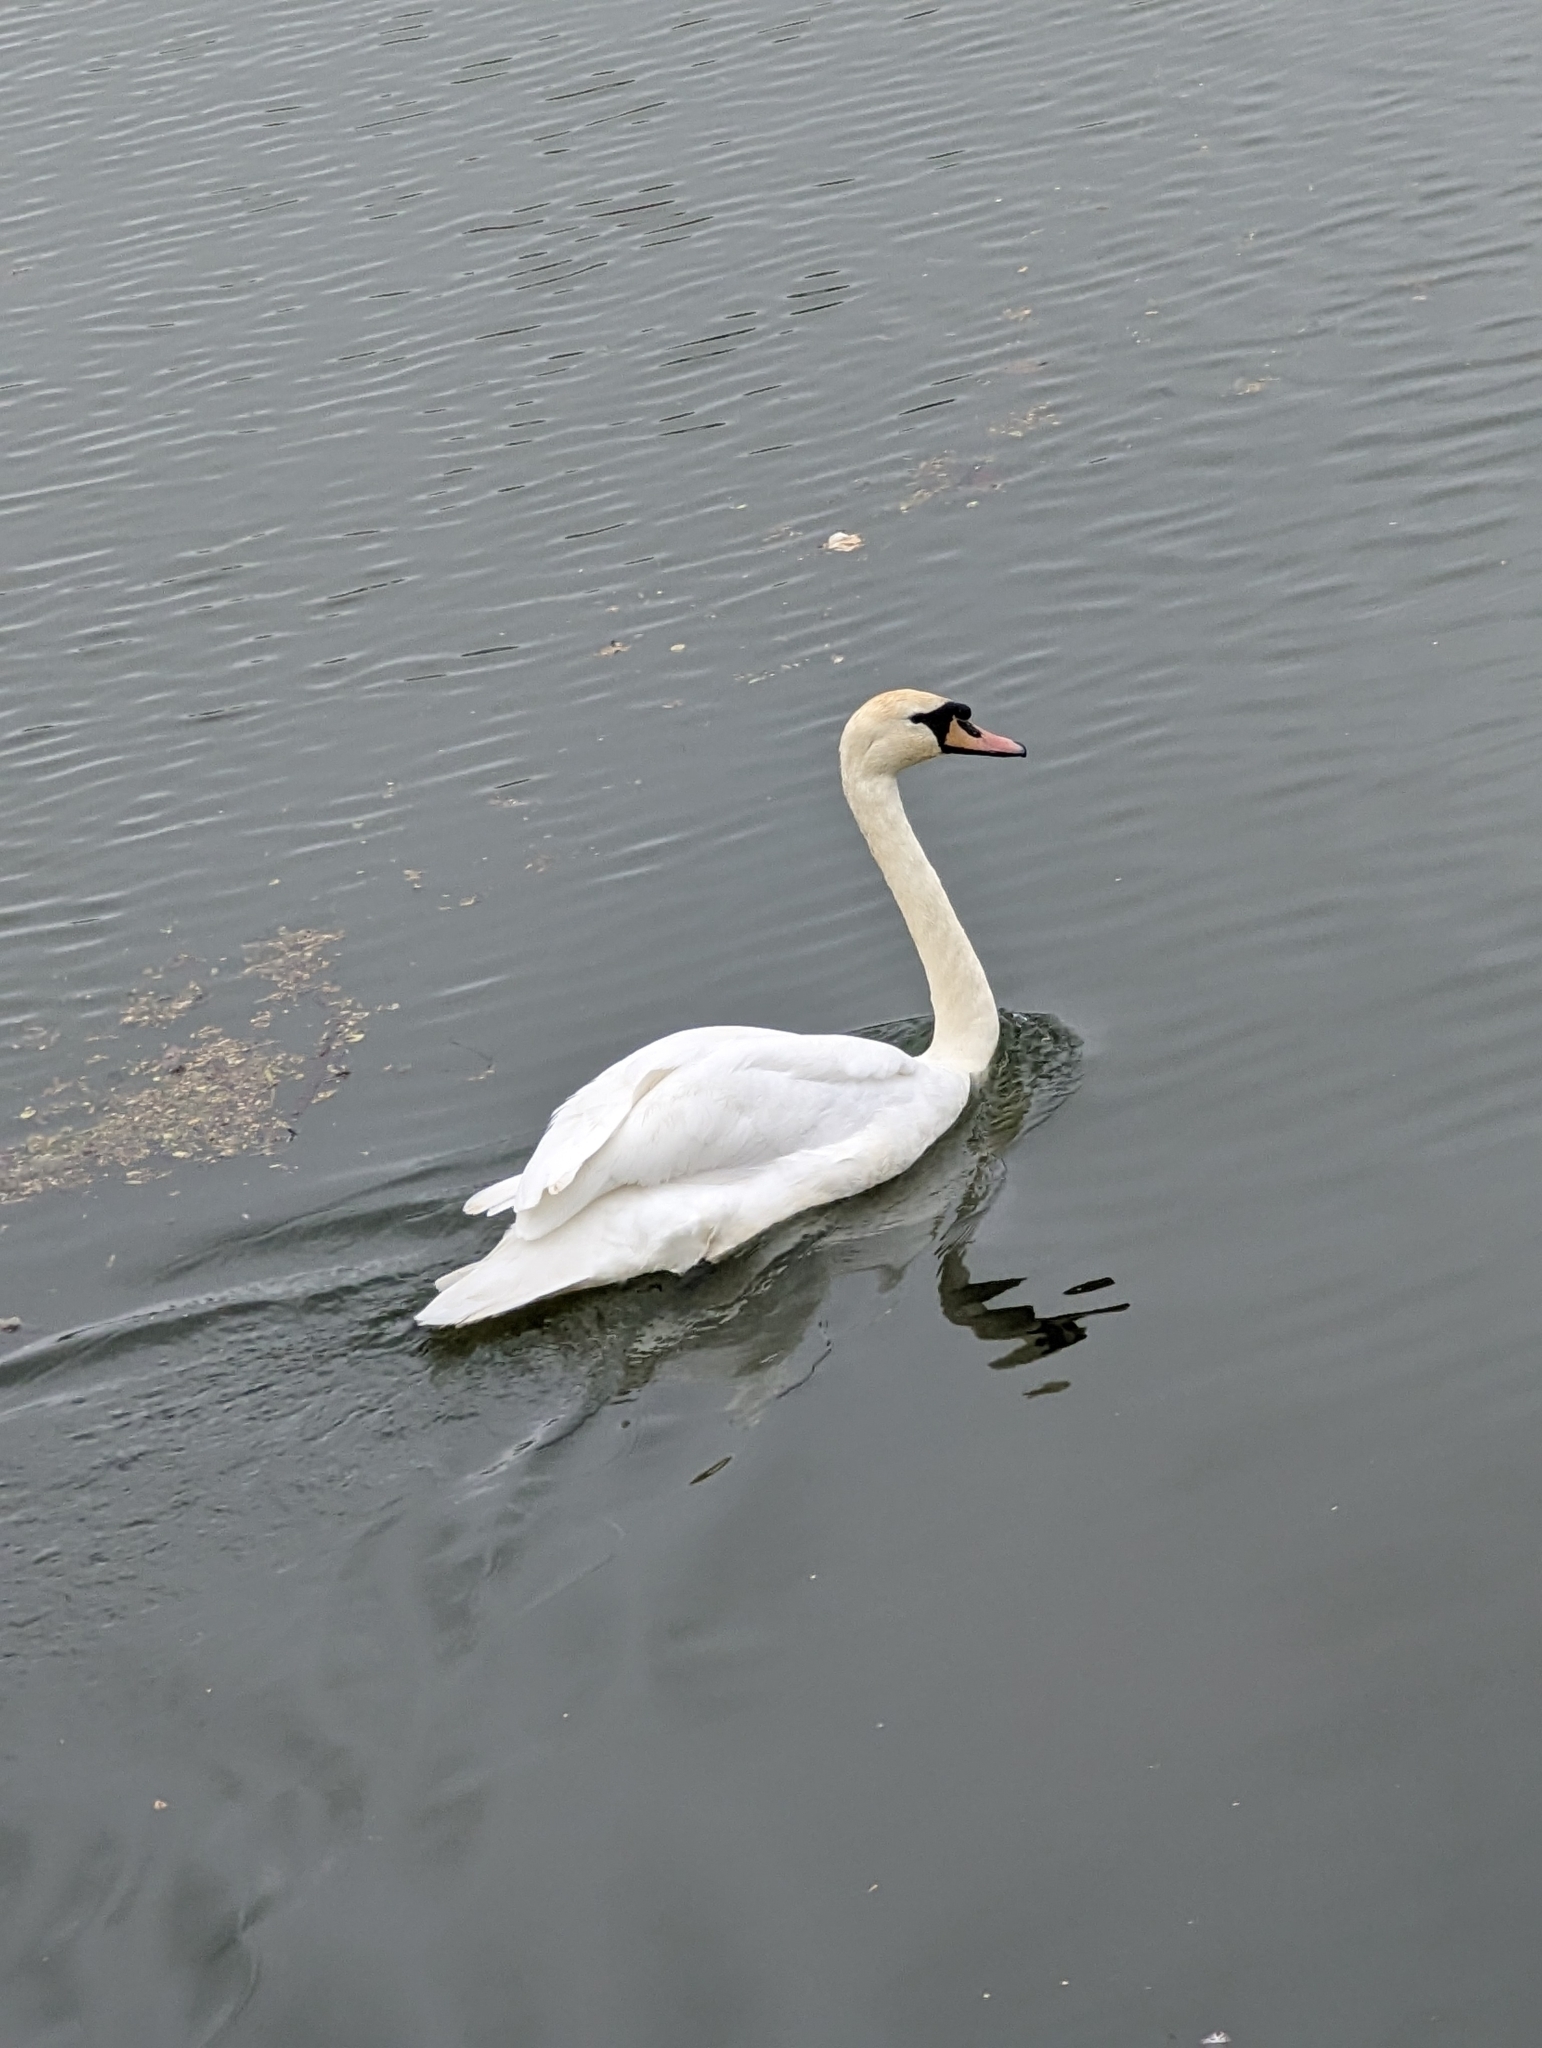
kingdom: Animalia
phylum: Chordata
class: Aves
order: Anseriformes
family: Anatidae
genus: Cygnus
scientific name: Cygnus olor
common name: Mute swan
